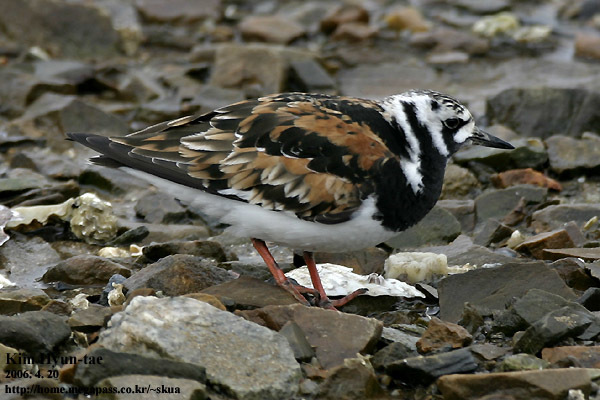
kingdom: Animalia
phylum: Chordata
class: Aves
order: Charadriiformes
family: Scolopacidae
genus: Arenaria
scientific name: Arenaria interpres
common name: Ruddy turnstone
